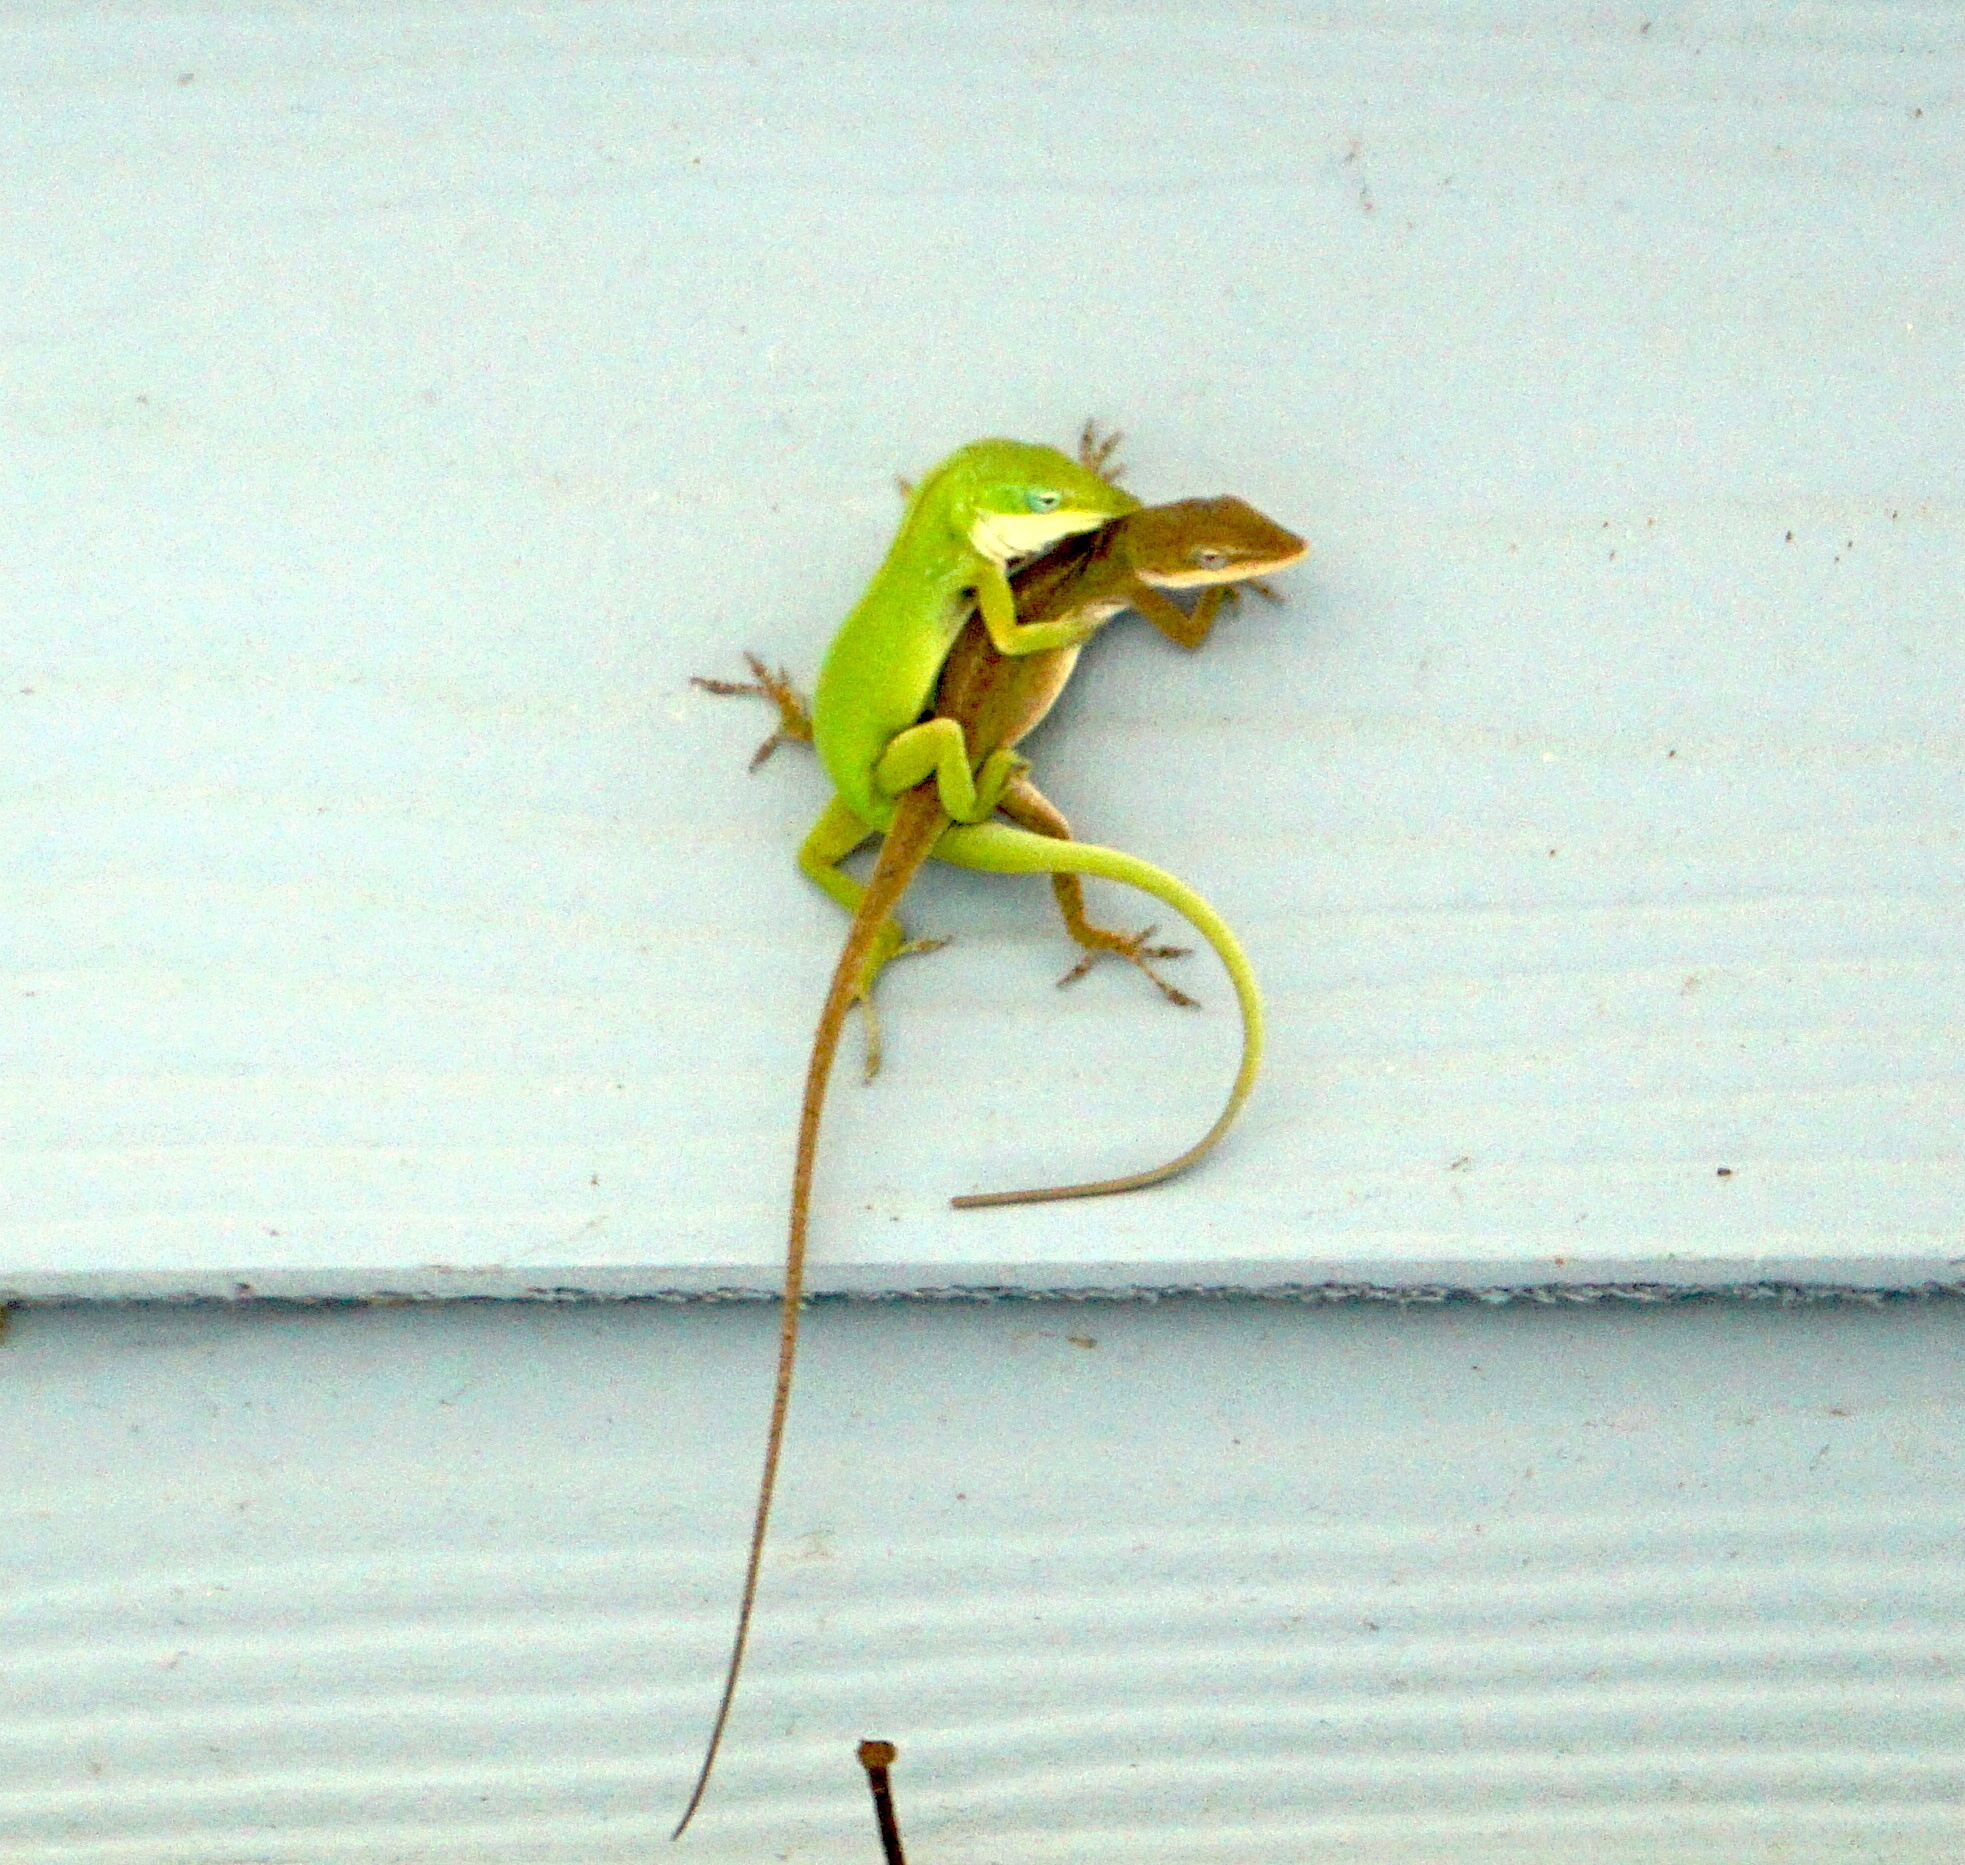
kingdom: Animalia
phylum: Chordata
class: Squamata
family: Dactyloidae
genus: Anolis
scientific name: Anolis carolinensis
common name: Green anole
